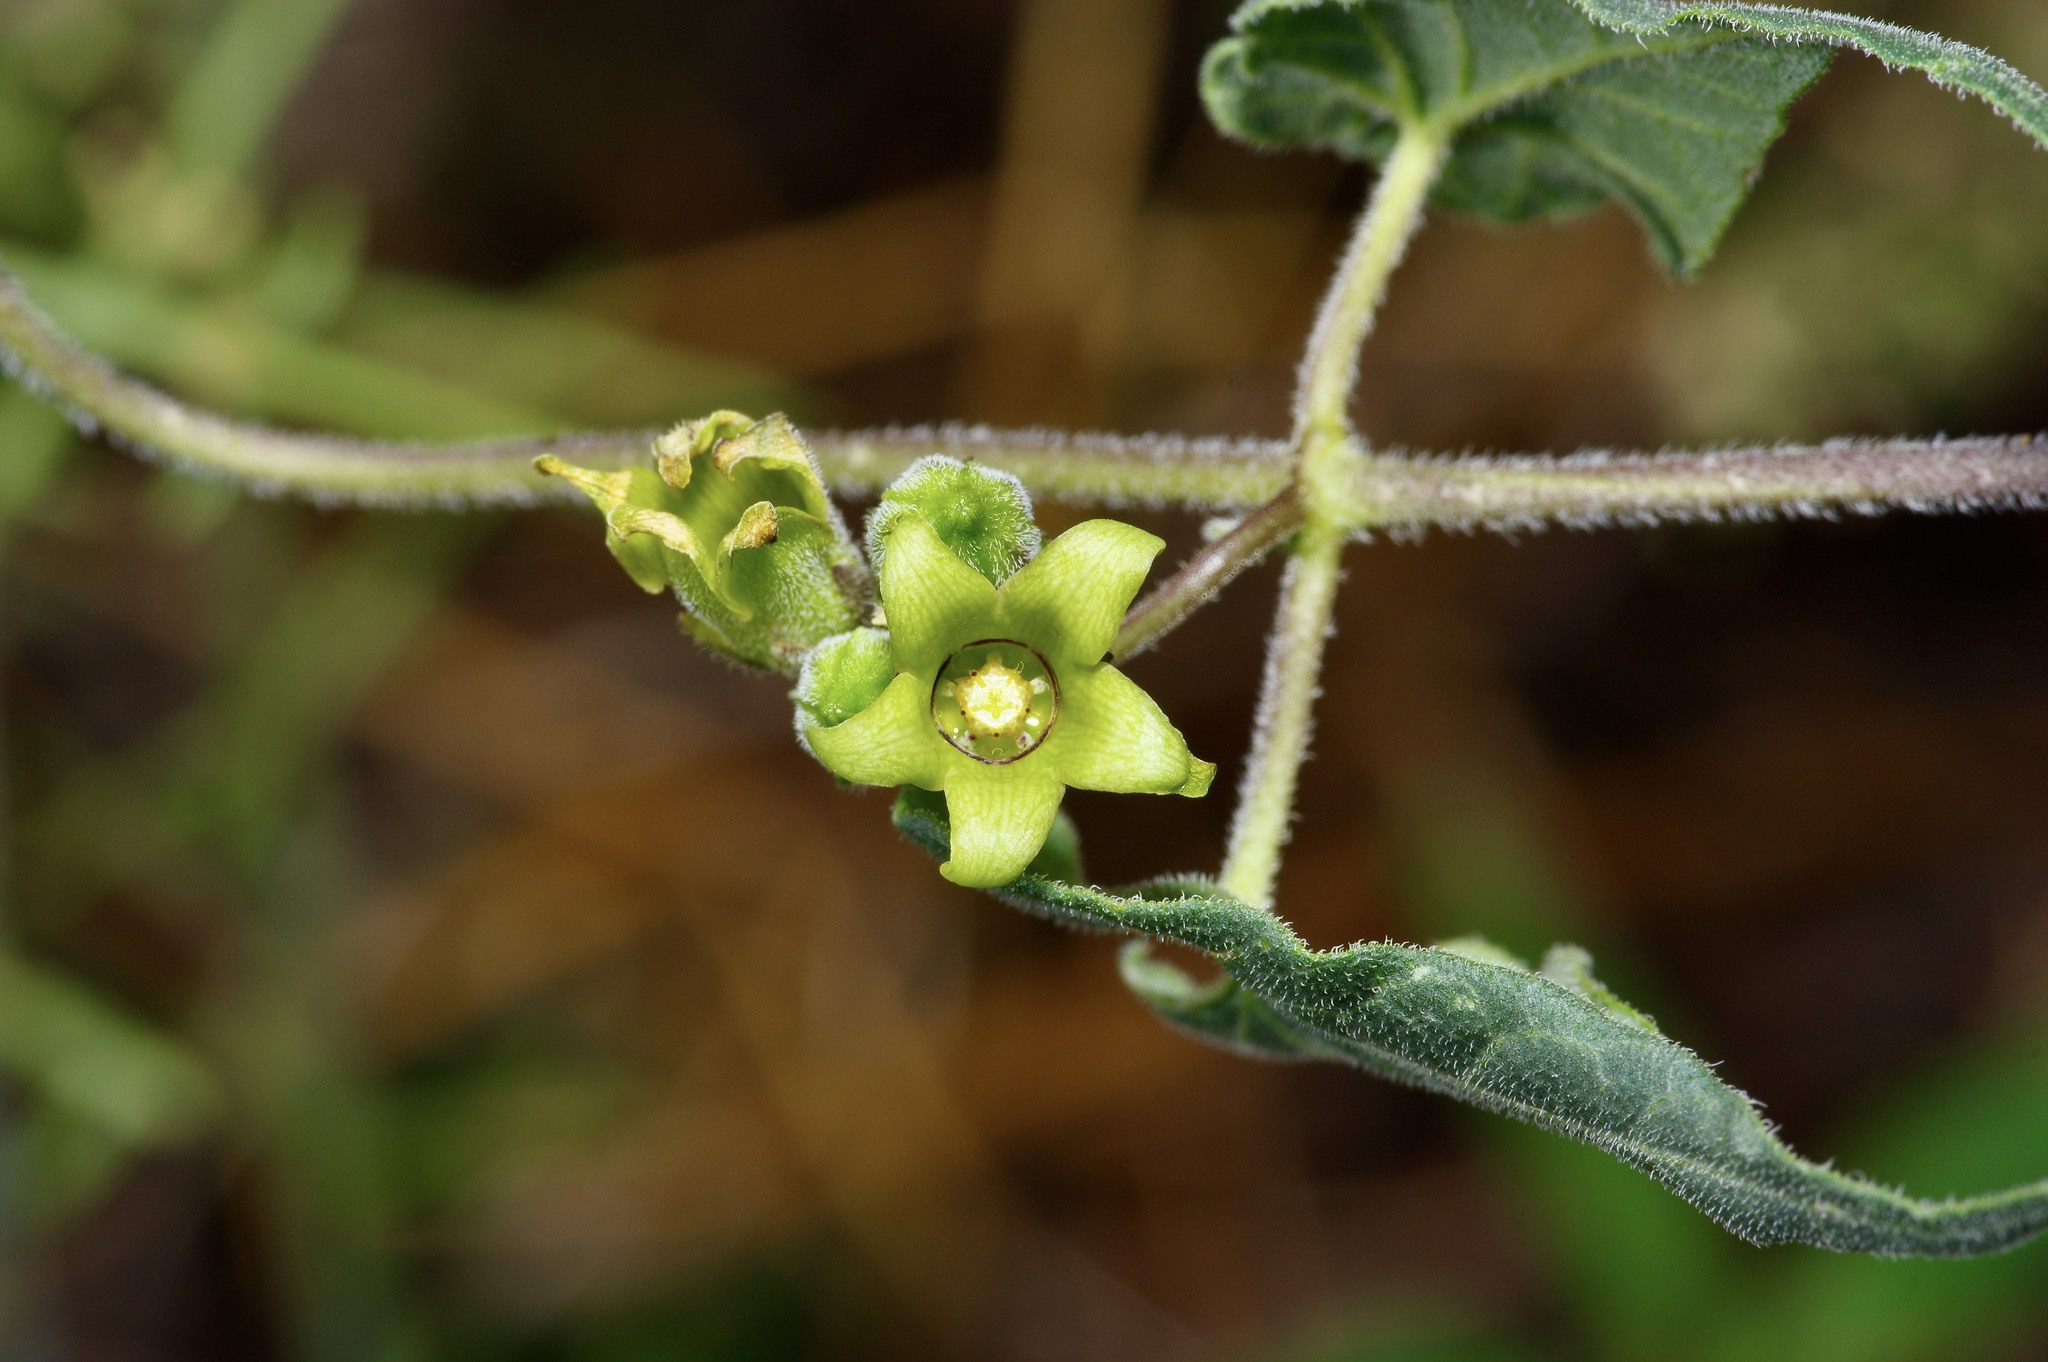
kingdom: Plantae
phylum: Tracheophyta
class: Magnoliopsida
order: Gentianales
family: Apocynaceae
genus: Chthamalia
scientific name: Chthamalia producta
